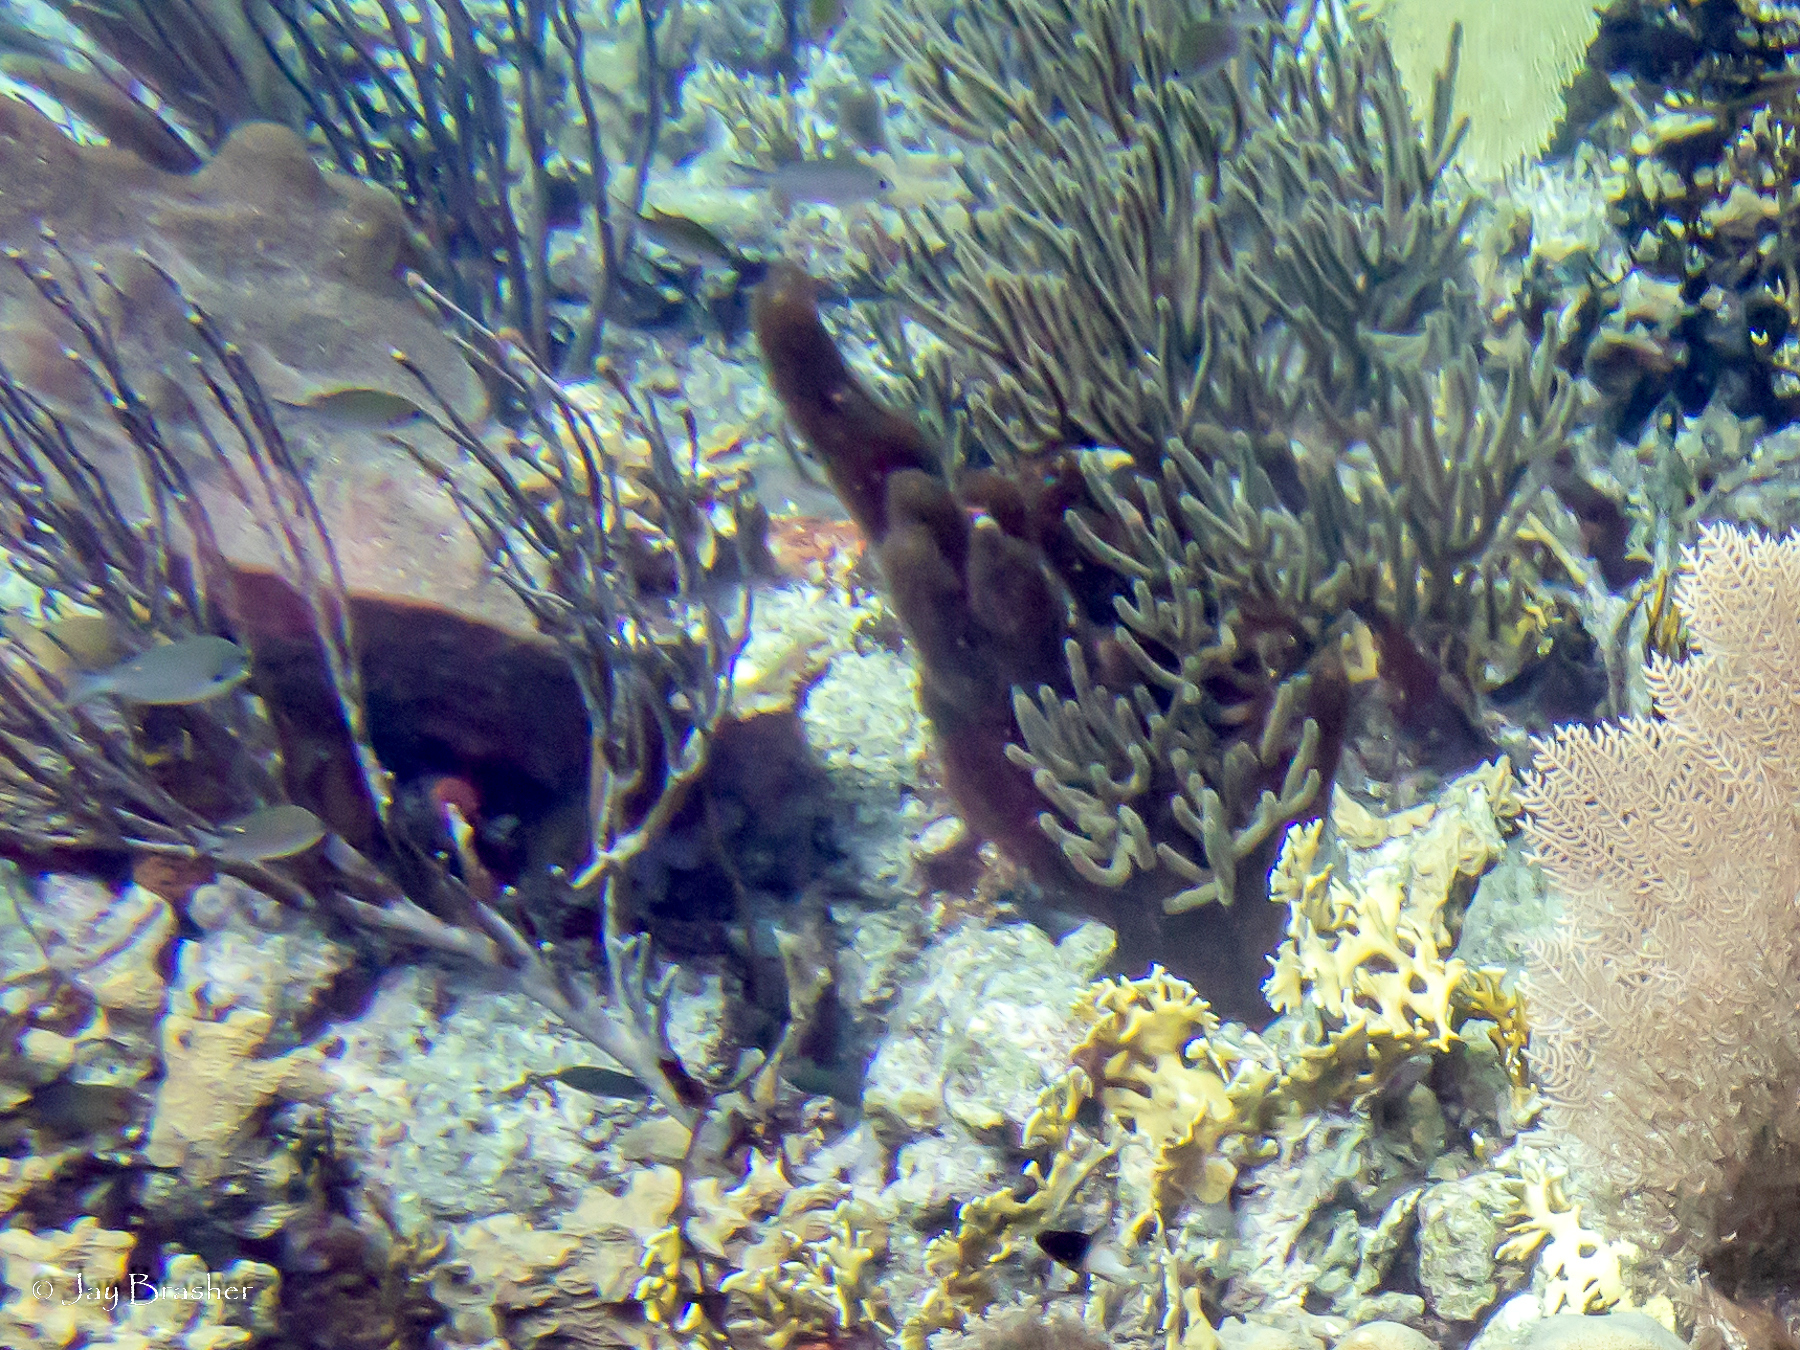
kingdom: Animalia
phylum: Cnidaria
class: Hydrozoa
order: Anthoathecata
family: Milleporidae
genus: Millepora
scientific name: Millepora alcicornis
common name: Branching fire coral
